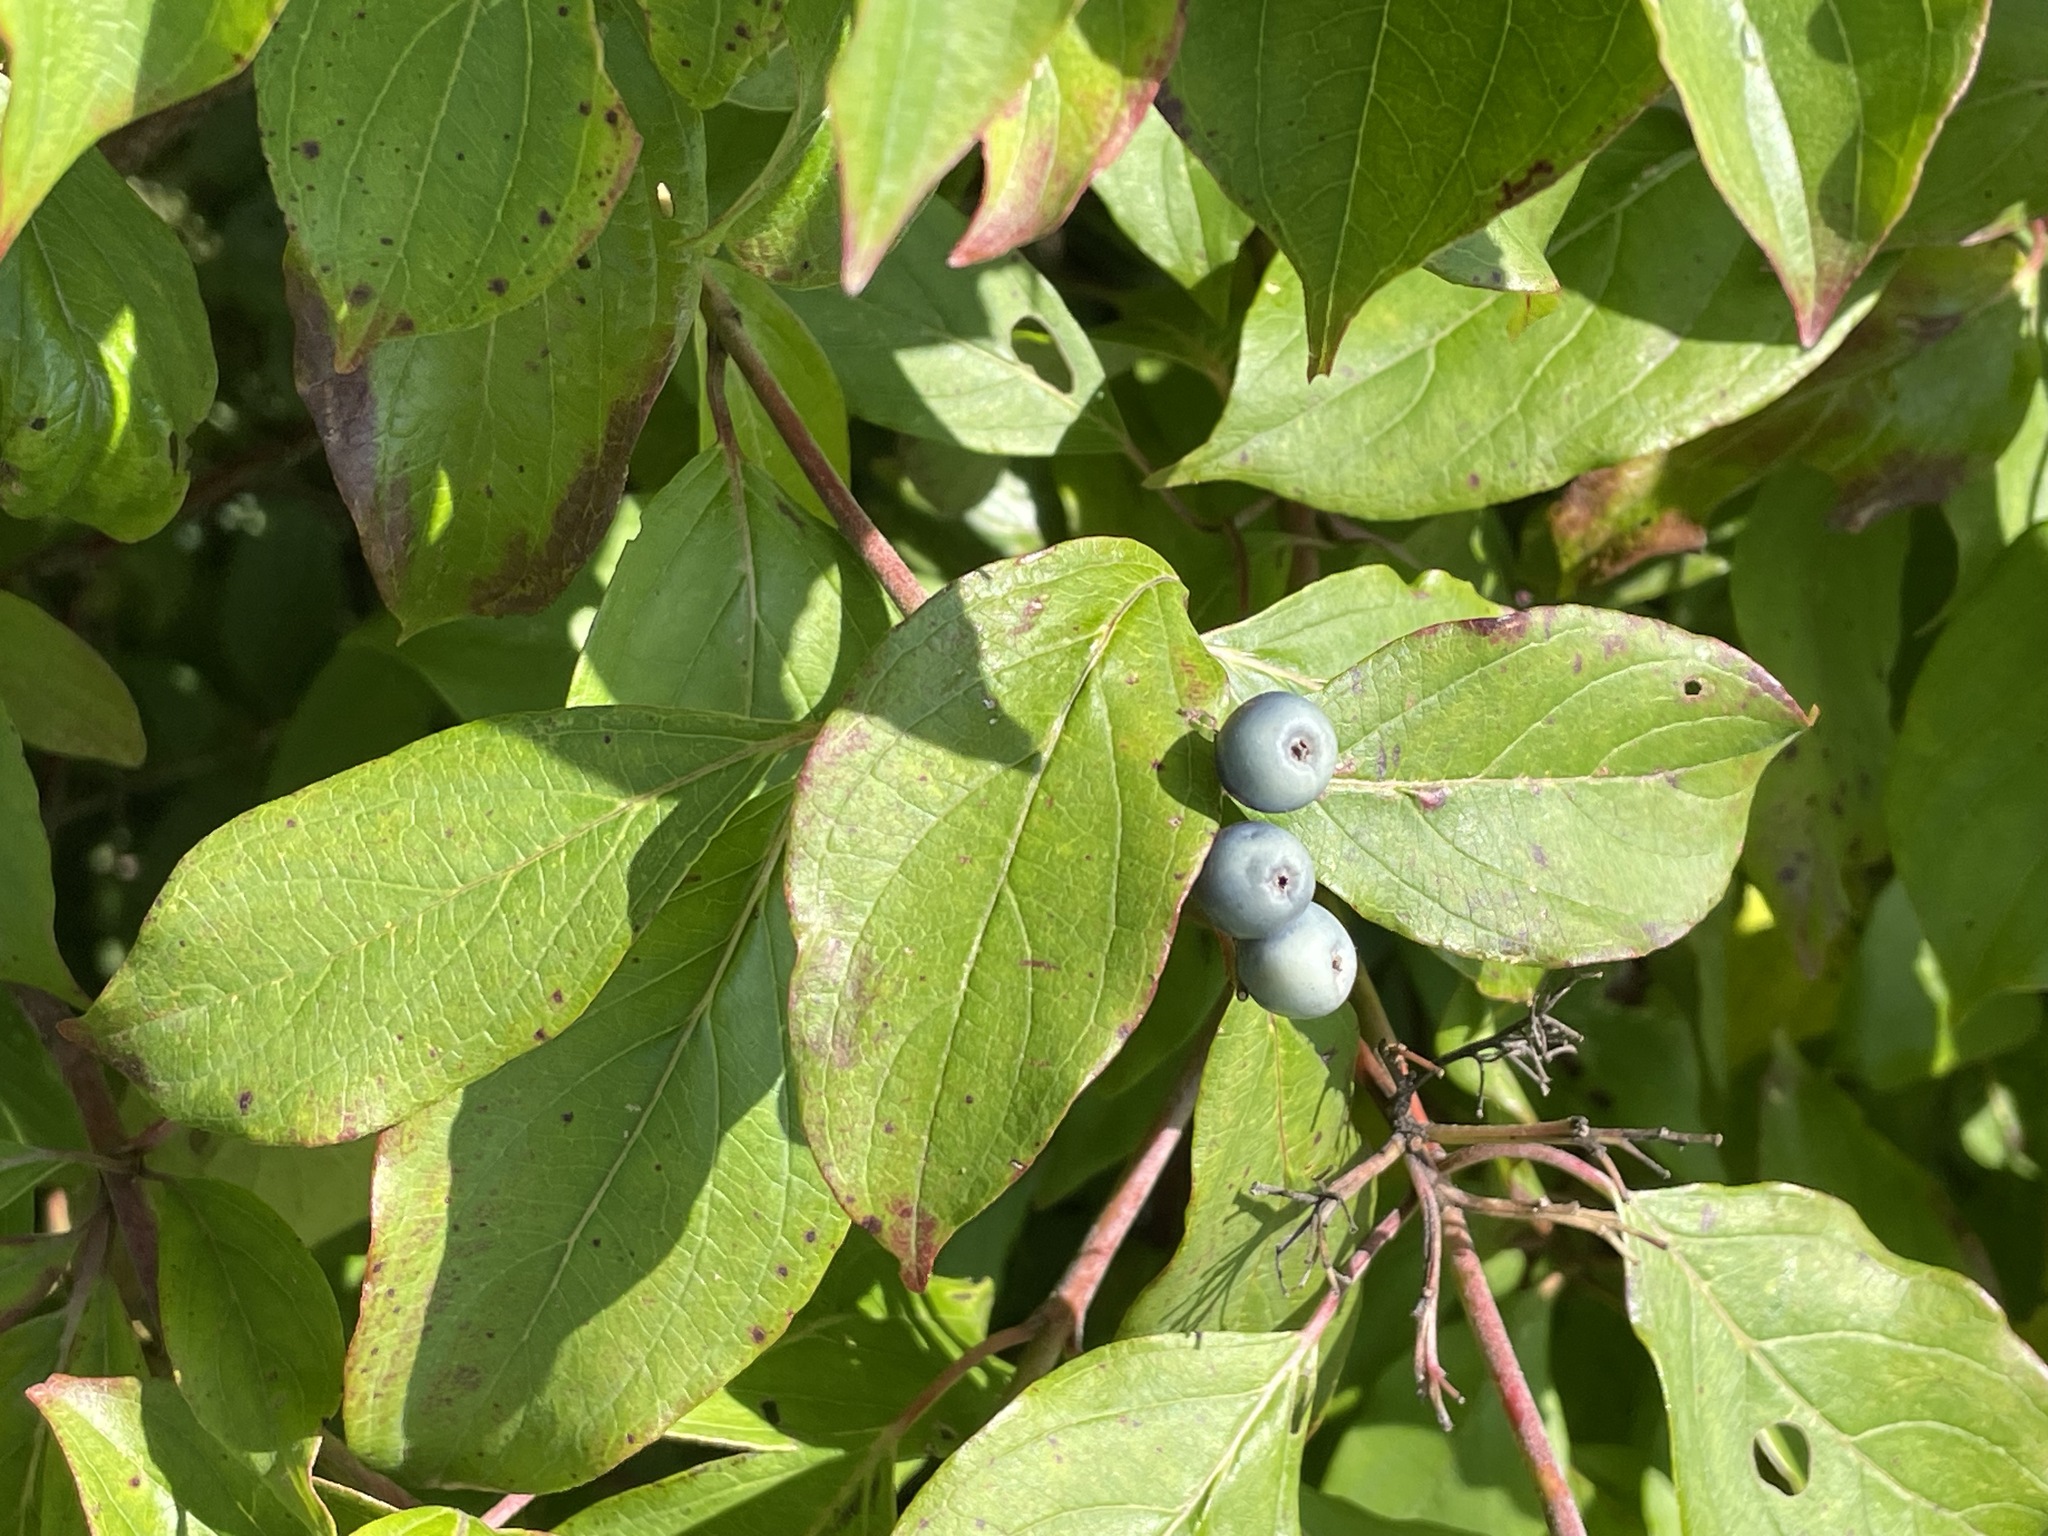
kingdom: Plantae
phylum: Tracheophyta
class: Magnoliopsida
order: Cornales
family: Cornaceae
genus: Cornus
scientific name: Cornus amomum
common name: Silky dogwood
